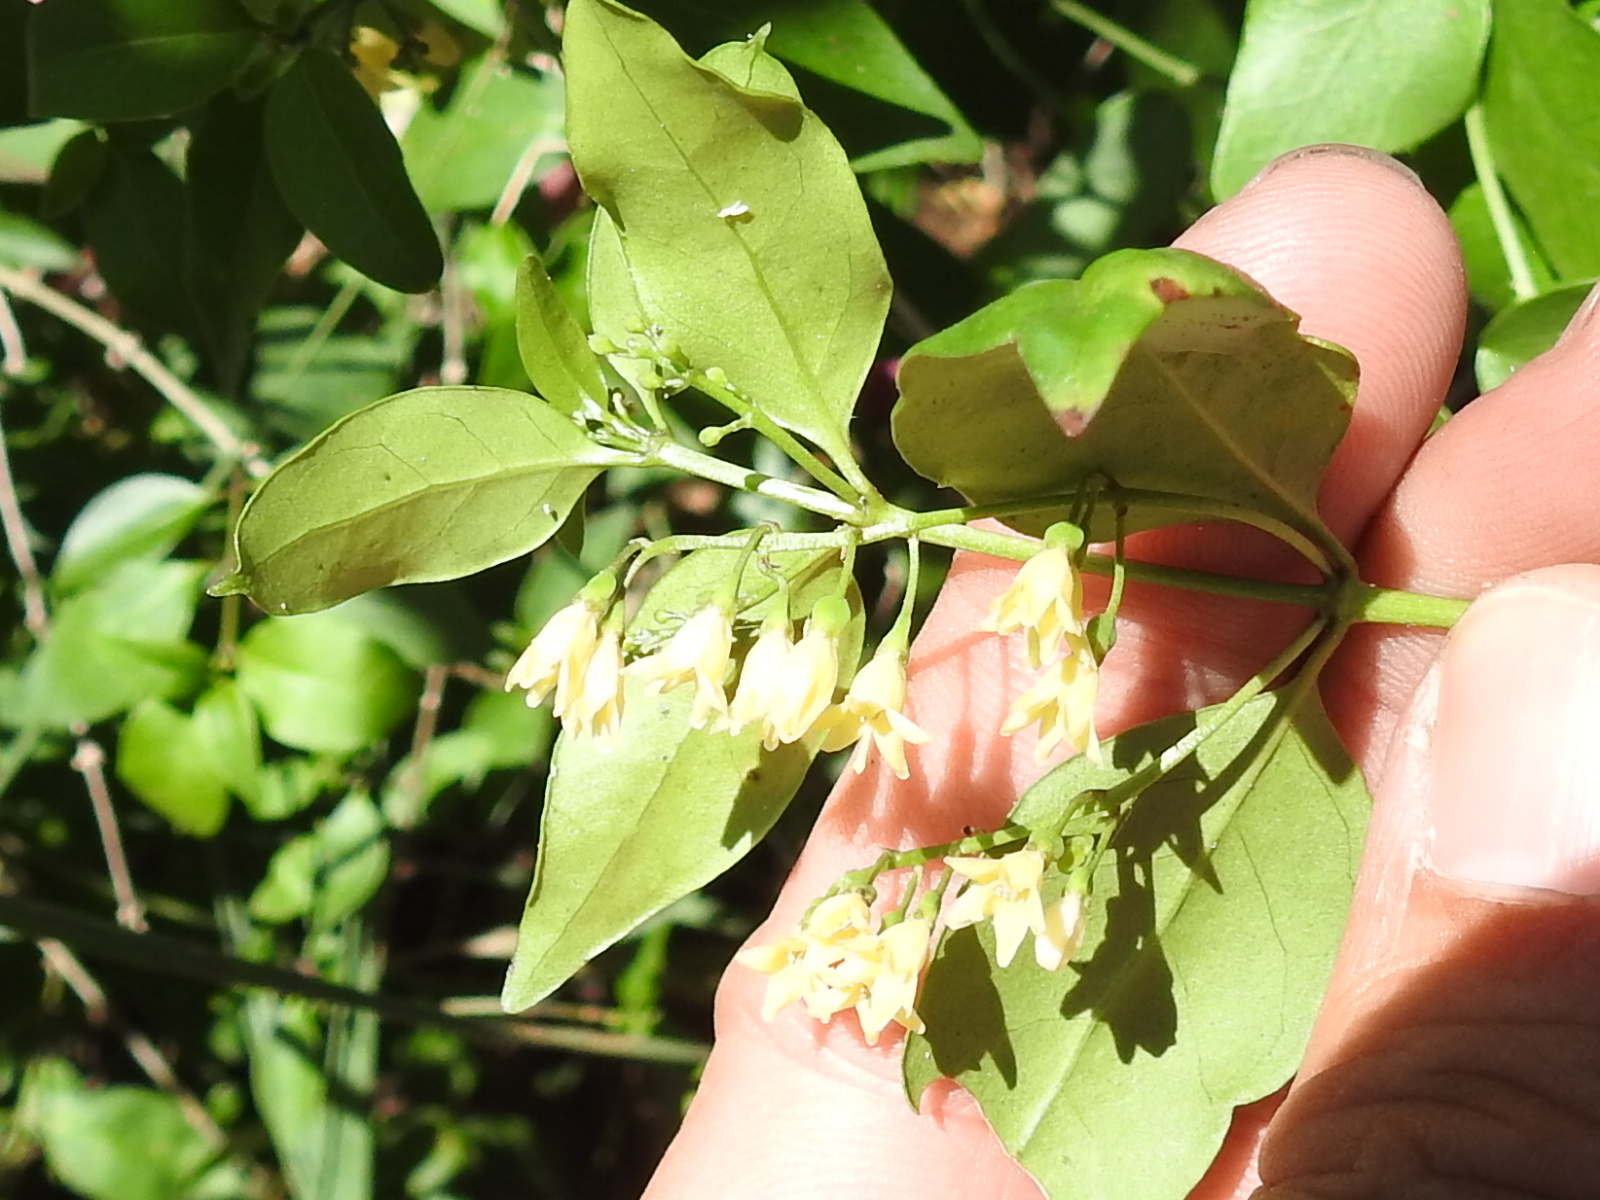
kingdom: Plantae
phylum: Tracheophyta
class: Magnoliopsida
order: Gentianales
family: Rubiaceae
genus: Chiococca
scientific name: Chiococca alba
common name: Snowberry
